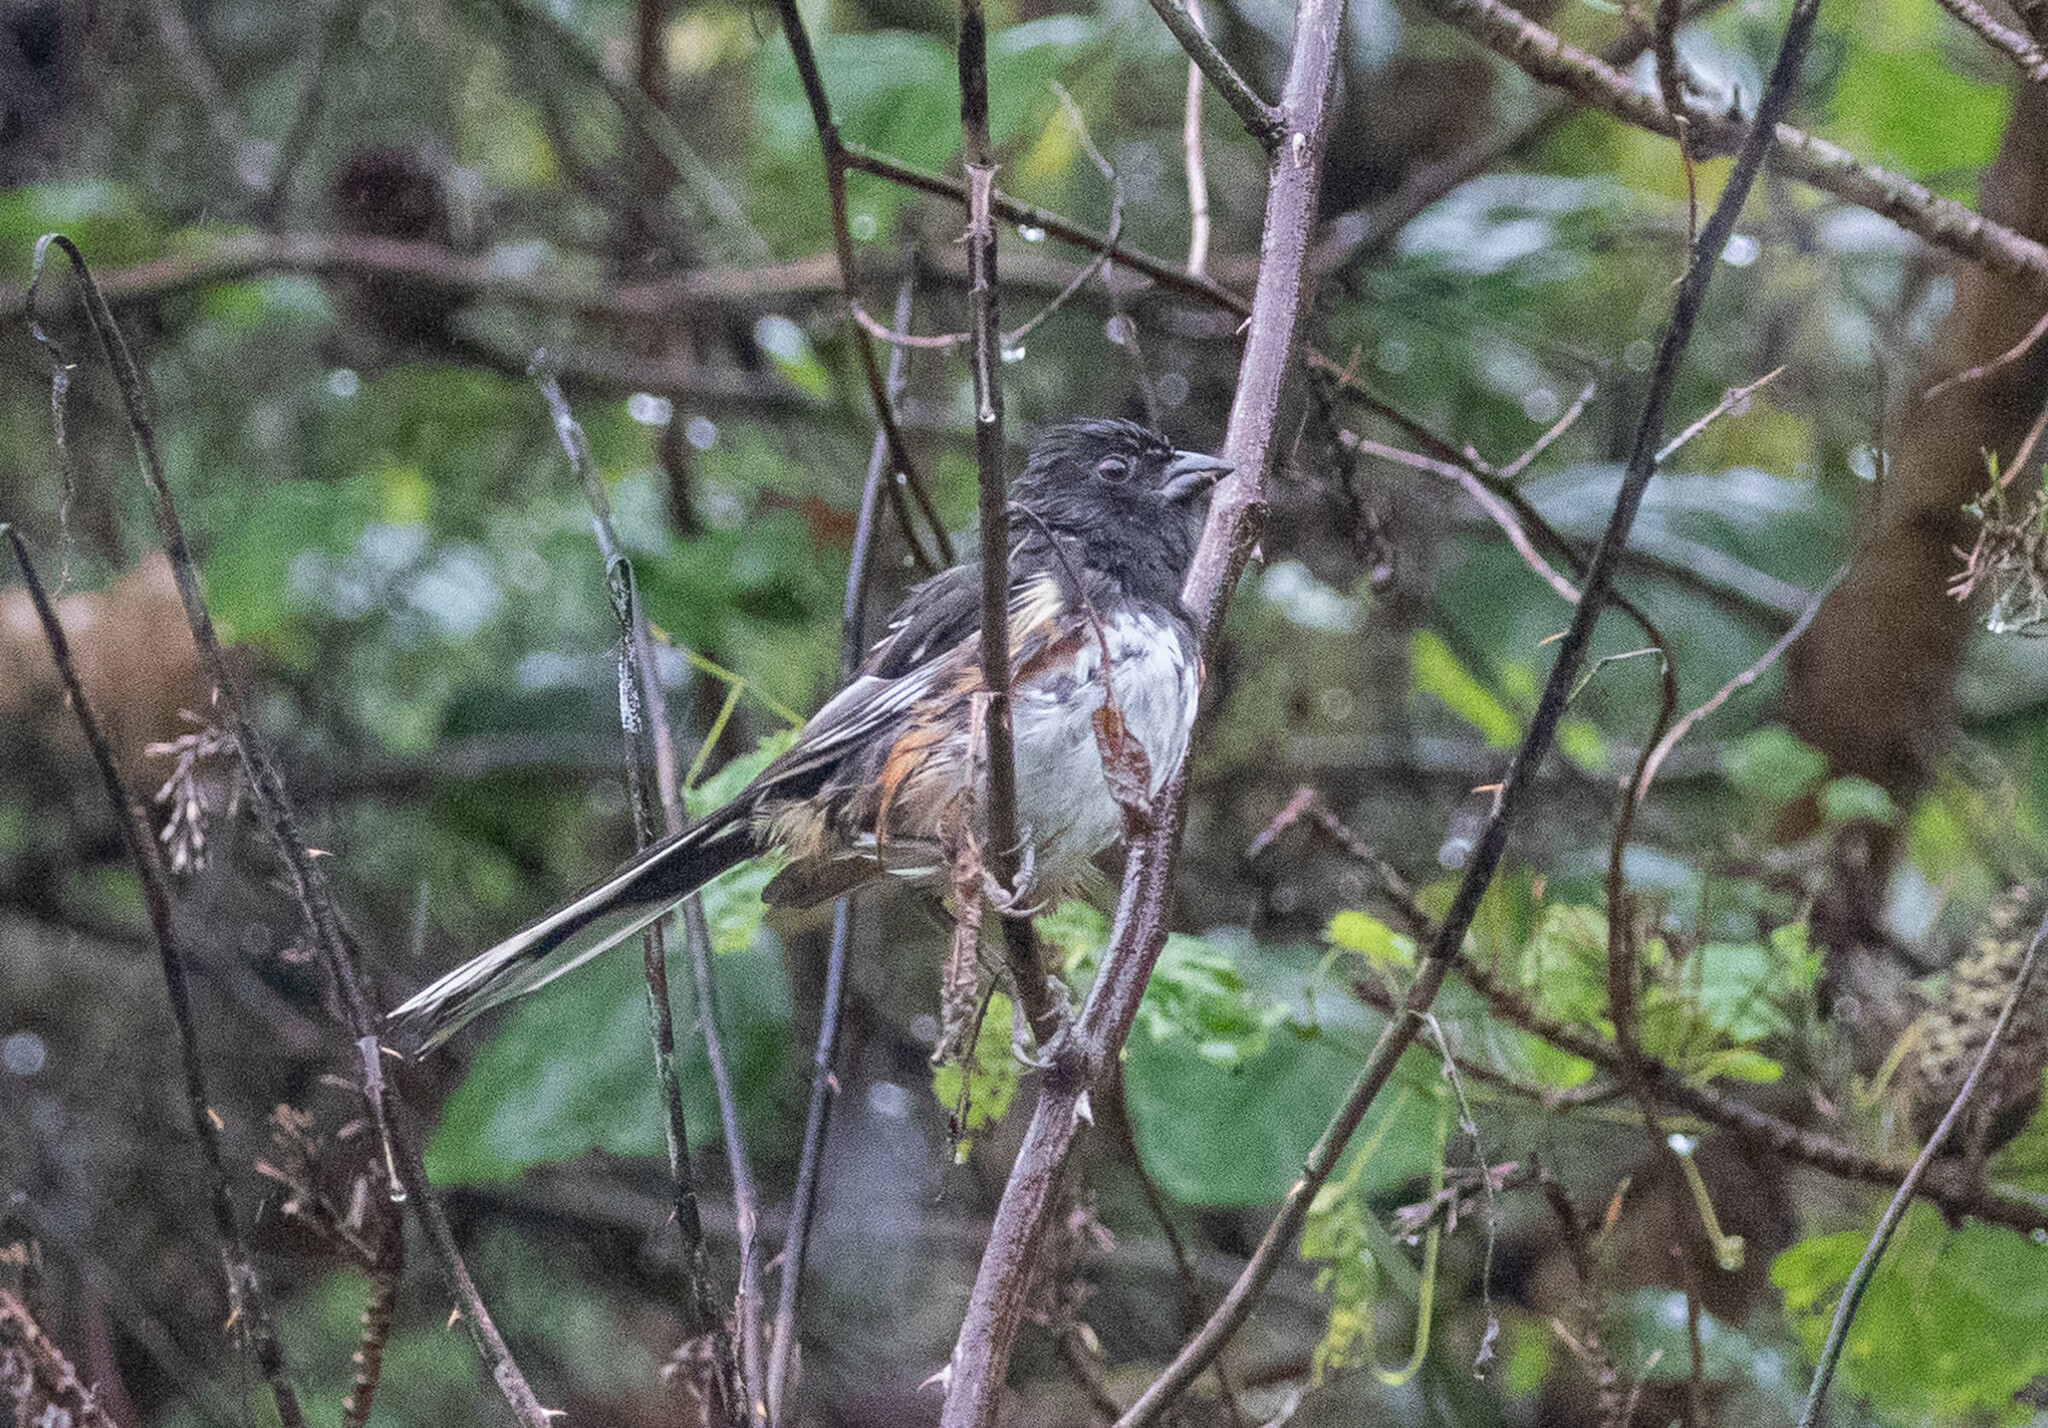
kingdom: Animalia
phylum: Chordata
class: Aves
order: Passeriformes
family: Passerellidae
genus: Pipilo
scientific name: Pipilo erythrophthalmus
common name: Eastern towhee
